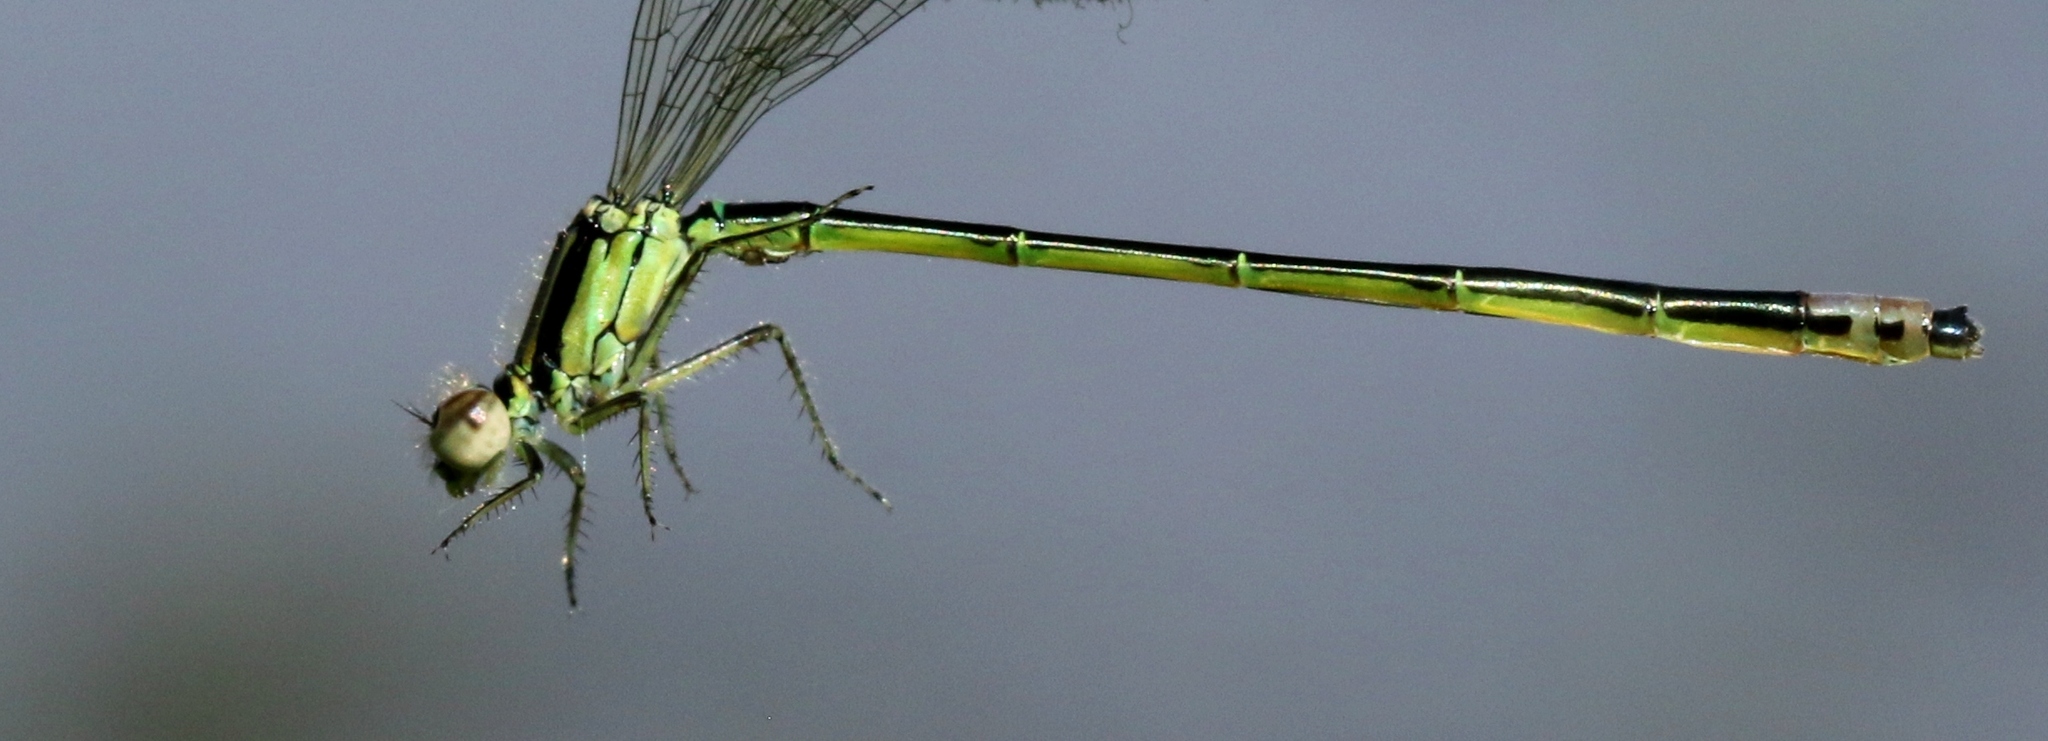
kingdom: Animalia
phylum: Arthropoda
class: Insecta
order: Odonata
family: Coenagrionidae
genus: Ischnura
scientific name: Ischnura verticalis
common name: Eastern forktail
